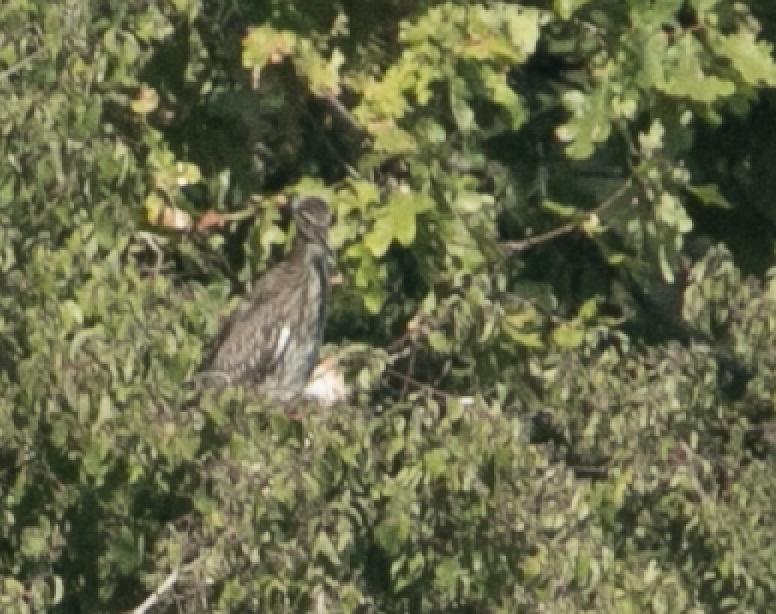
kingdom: Animalia
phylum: Chordata
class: Aves
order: Pelecaniformes
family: Ardeidae
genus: Nycticorax
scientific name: Nycticorax nycticorax
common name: Black-crowned night heron
